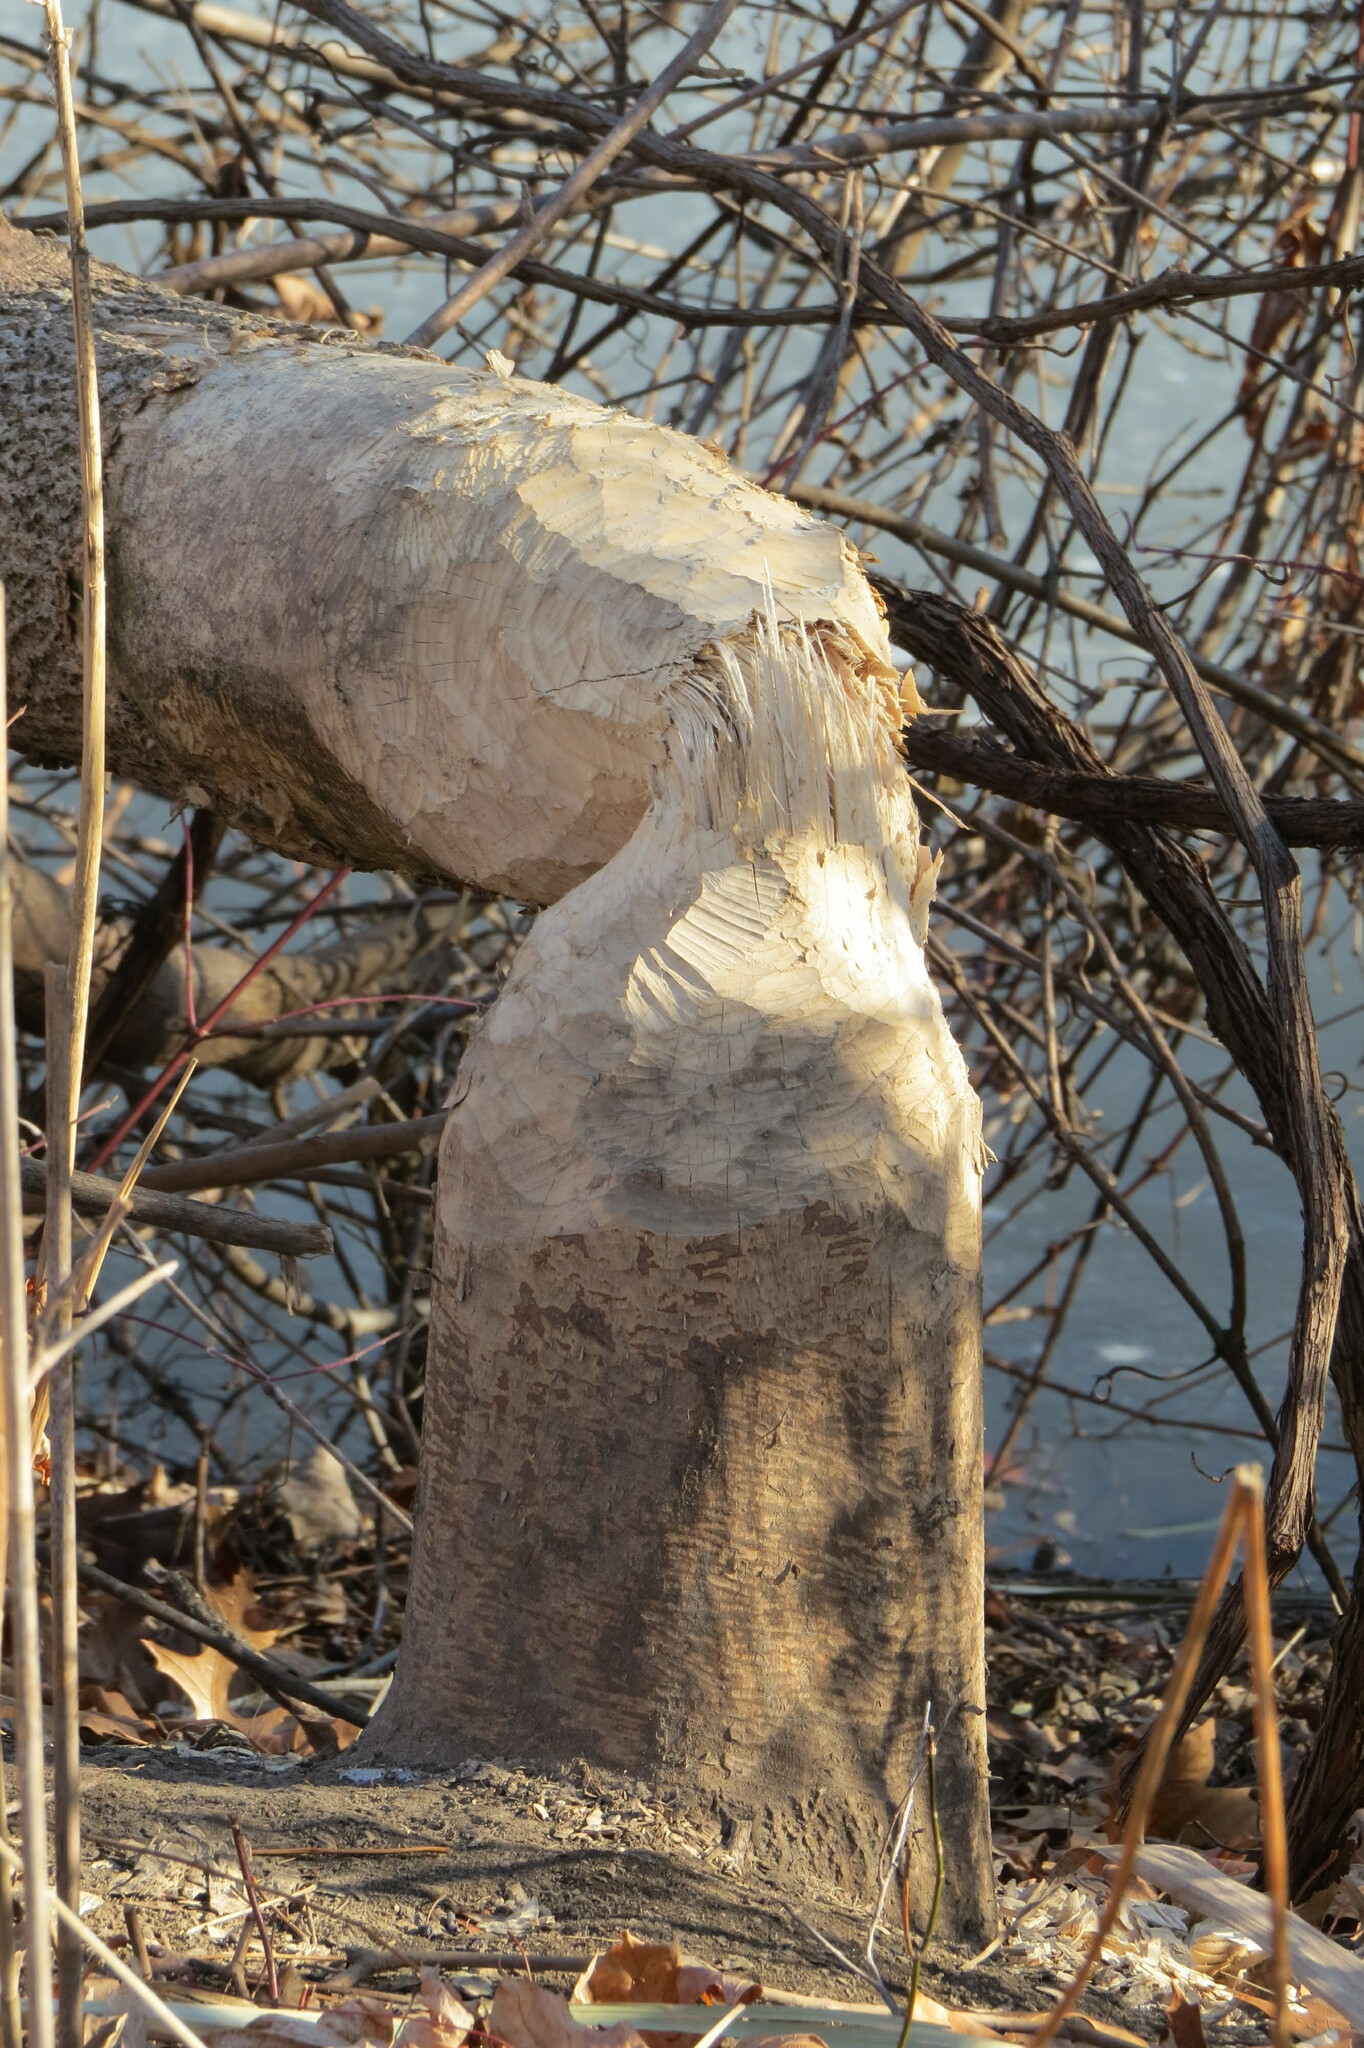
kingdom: Animalia
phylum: Chordata
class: Mammalia
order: Rodentia
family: Castoridae
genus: Castor
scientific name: Castor canadensis
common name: American beaver
